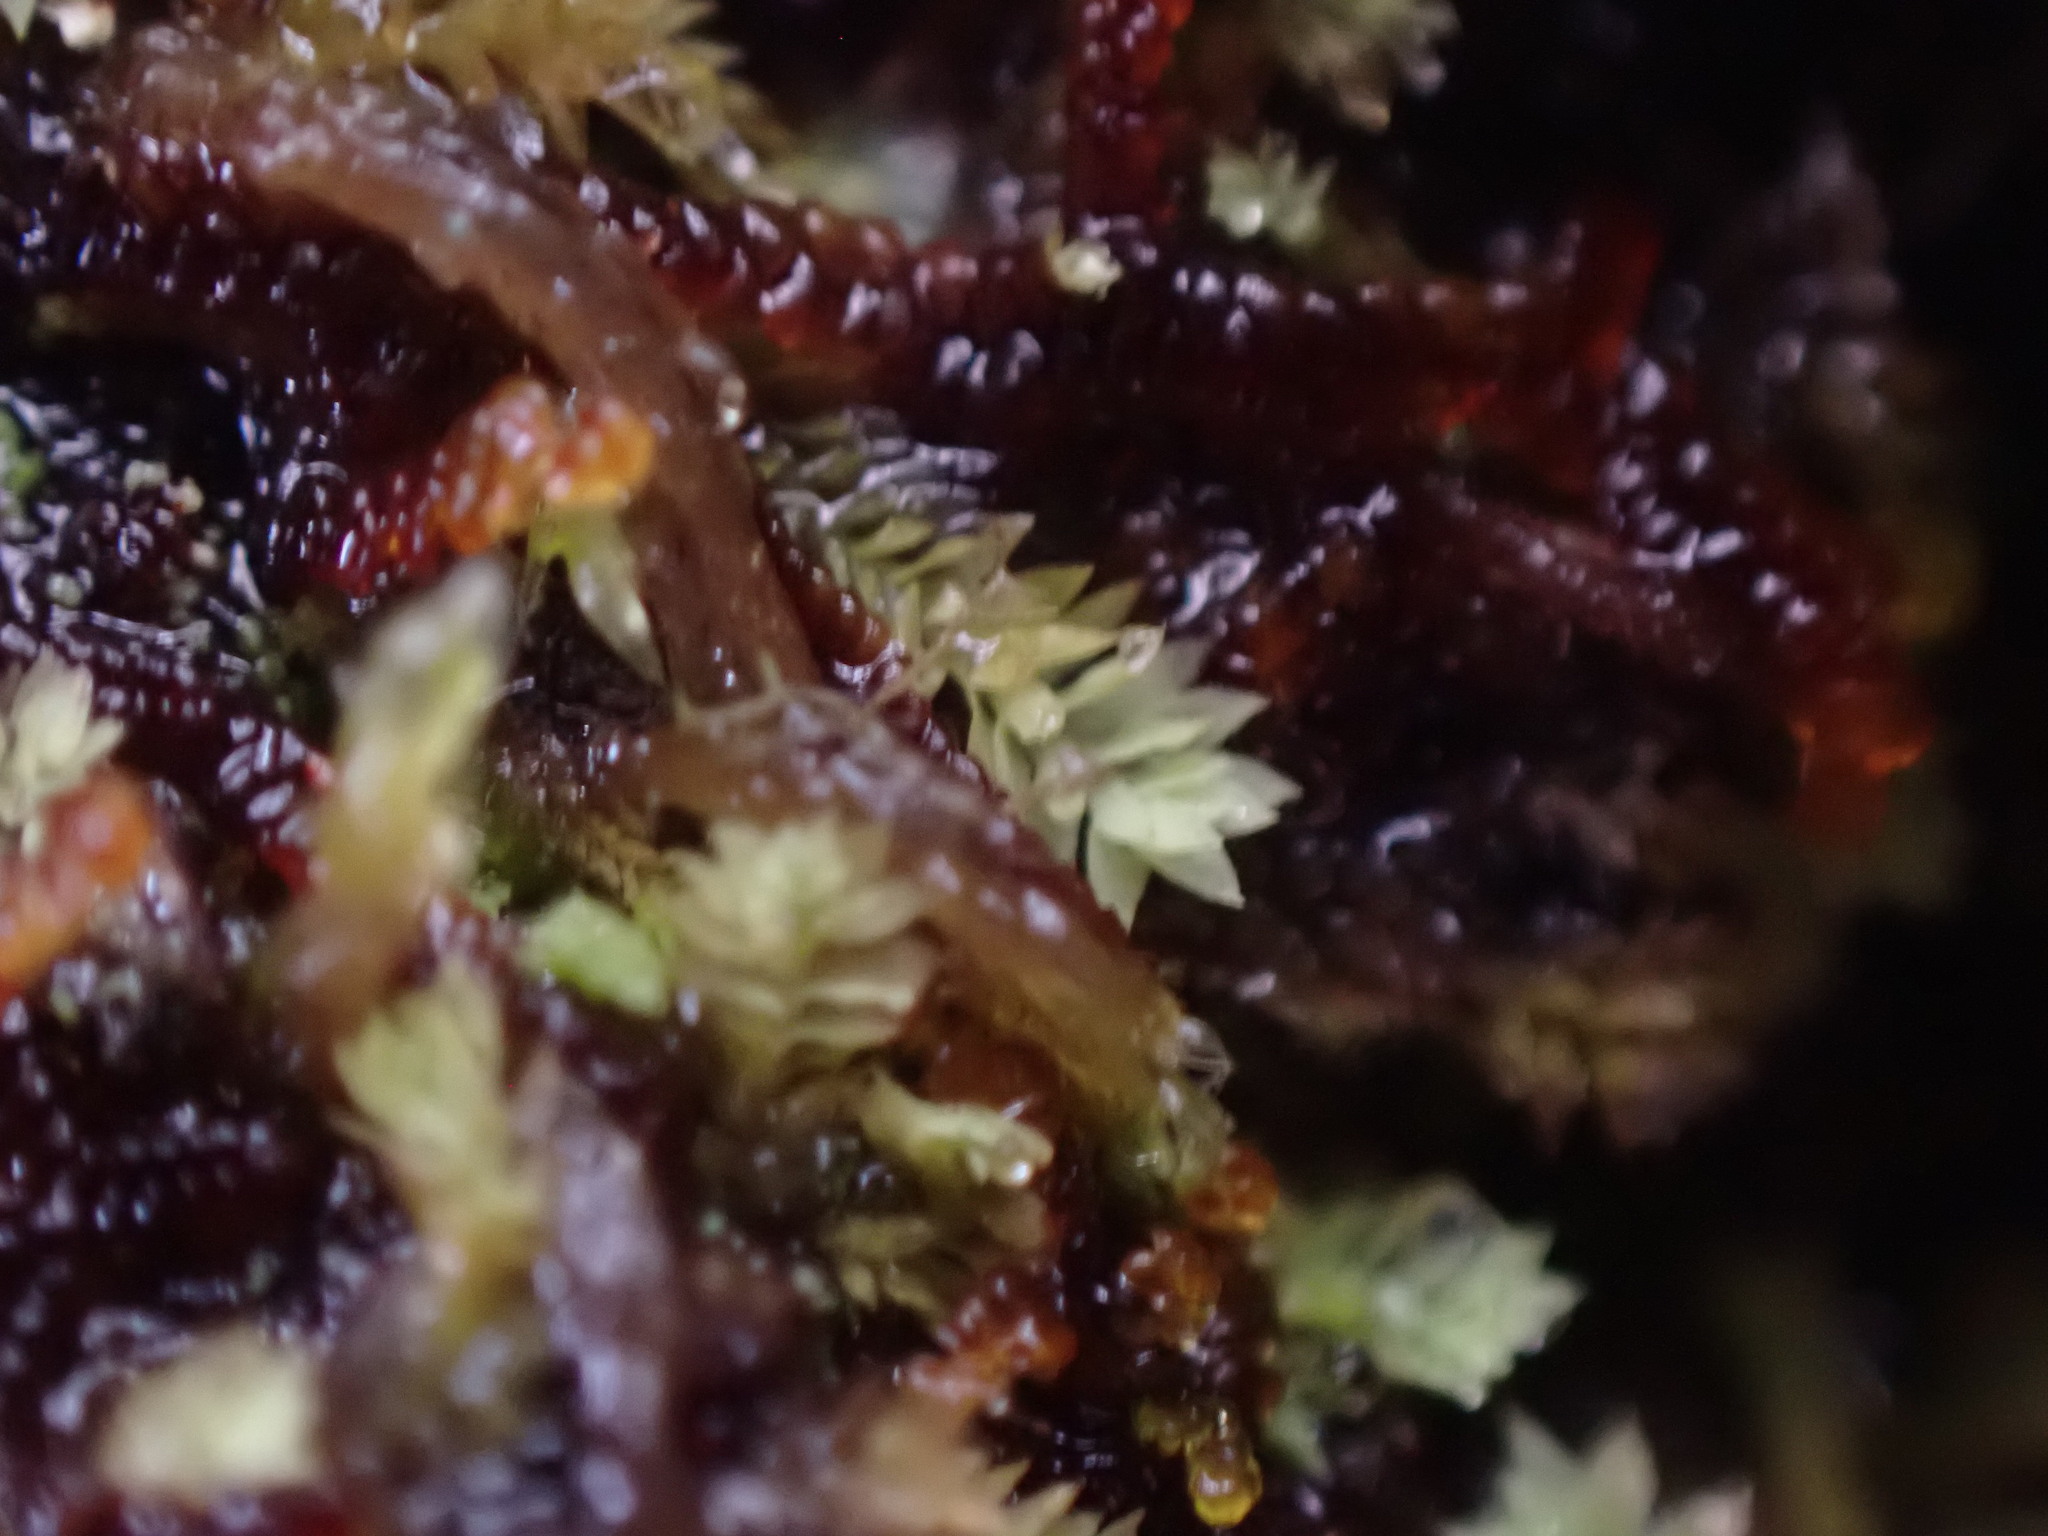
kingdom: Plantae
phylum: Marchantiophyta
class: Jungermanniopsida
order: Jungermanniales
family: Scapaniaceae
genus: Douinia
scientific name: Douinia ovata
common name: Waxy earwort
